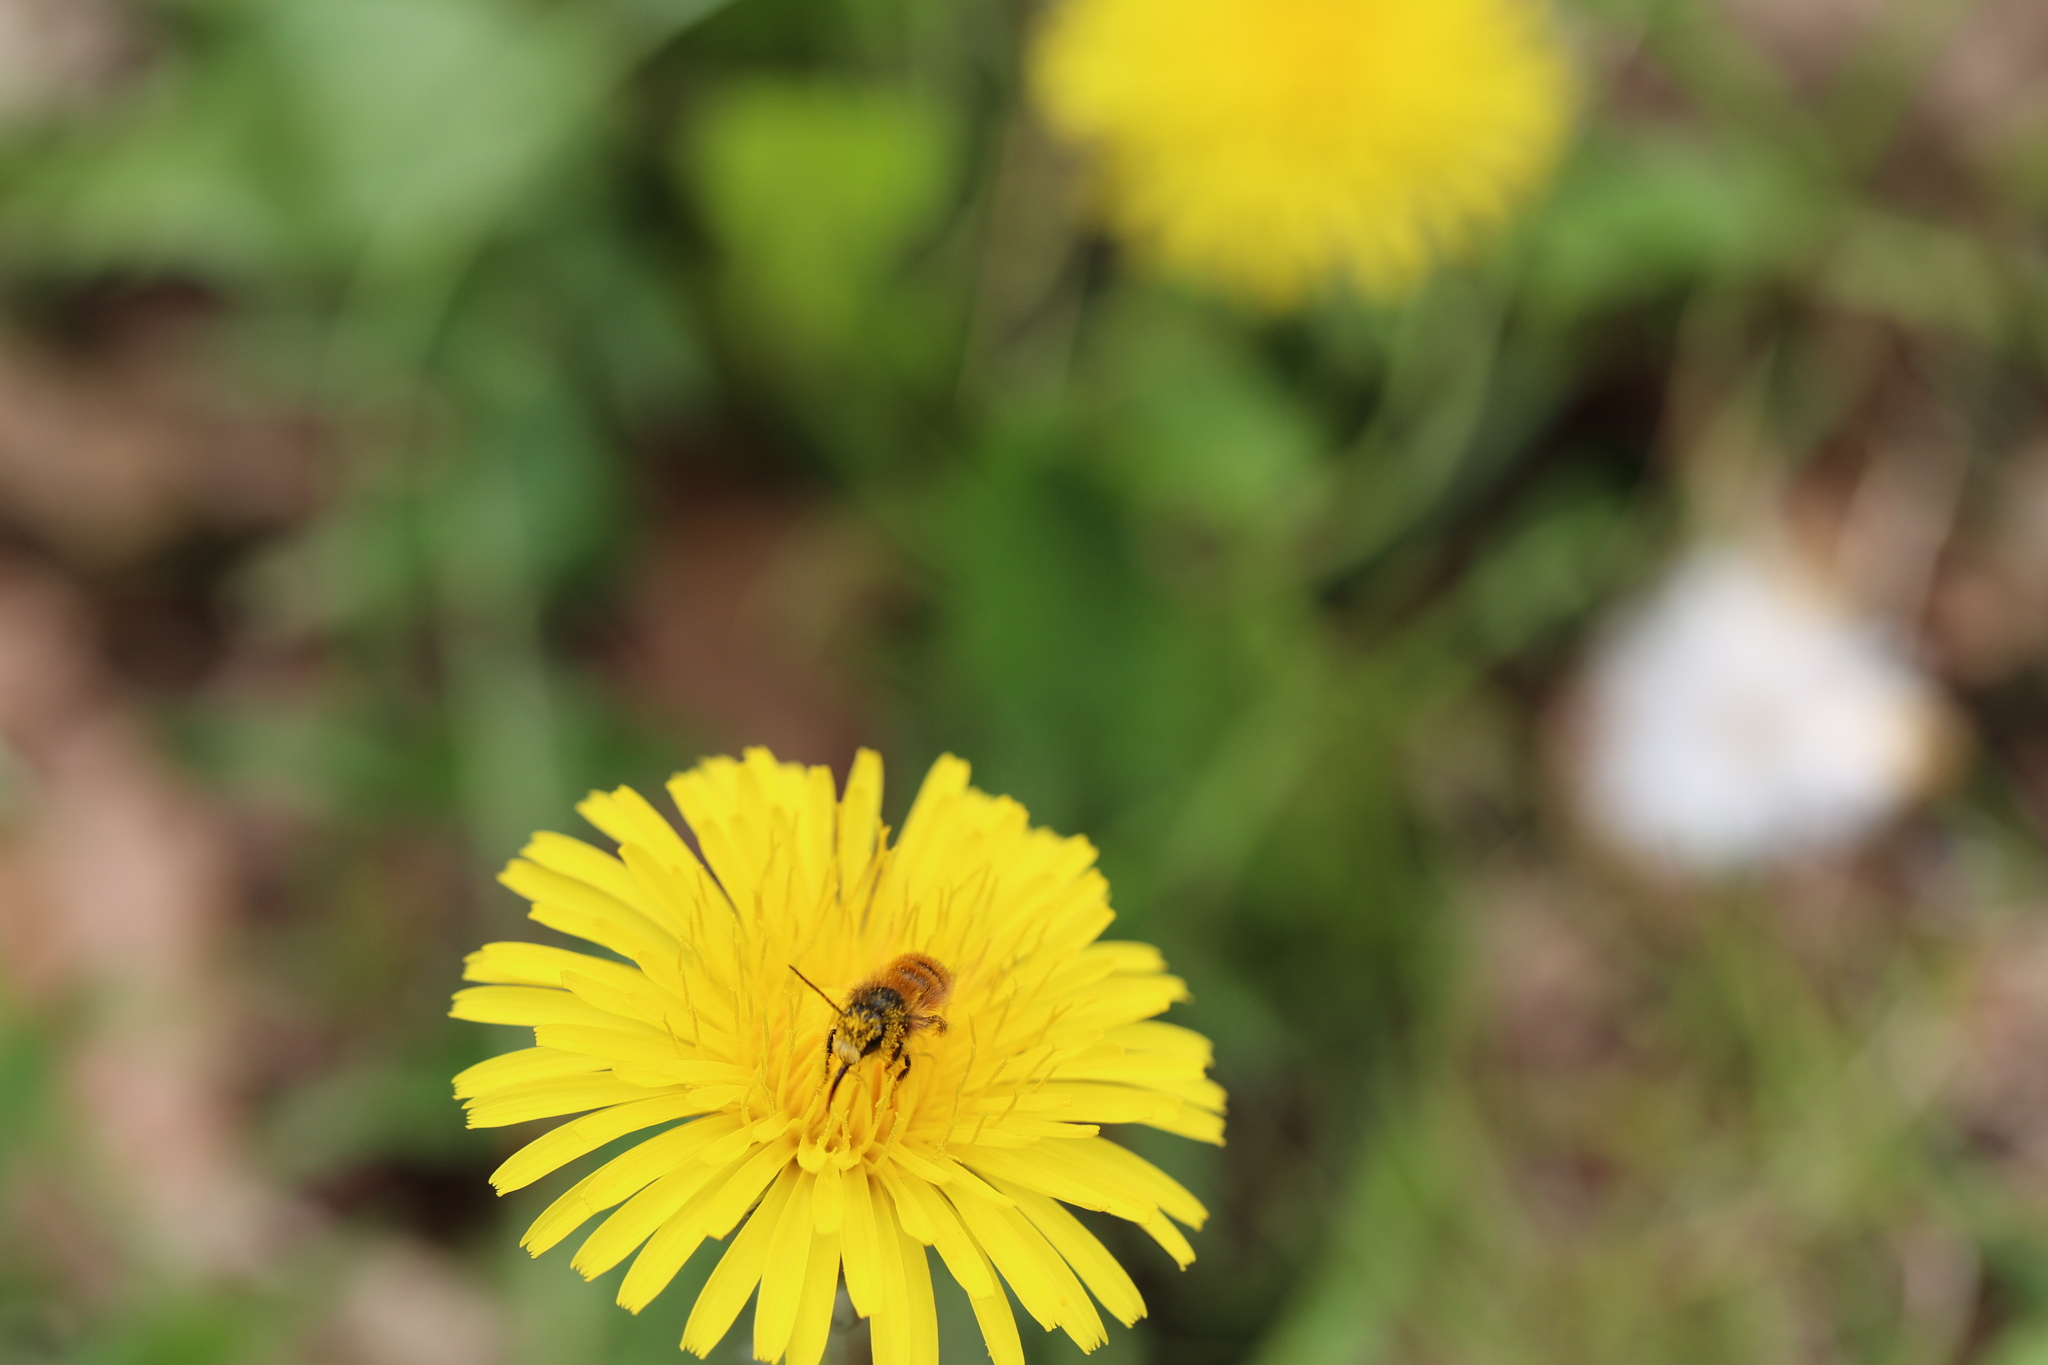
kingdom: Animalia
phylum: Arthropoda
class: Insecta
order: Hymenoptera
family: Megachilidae
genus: Osmia
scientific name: Osmia bicornis
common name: Red mason bee
